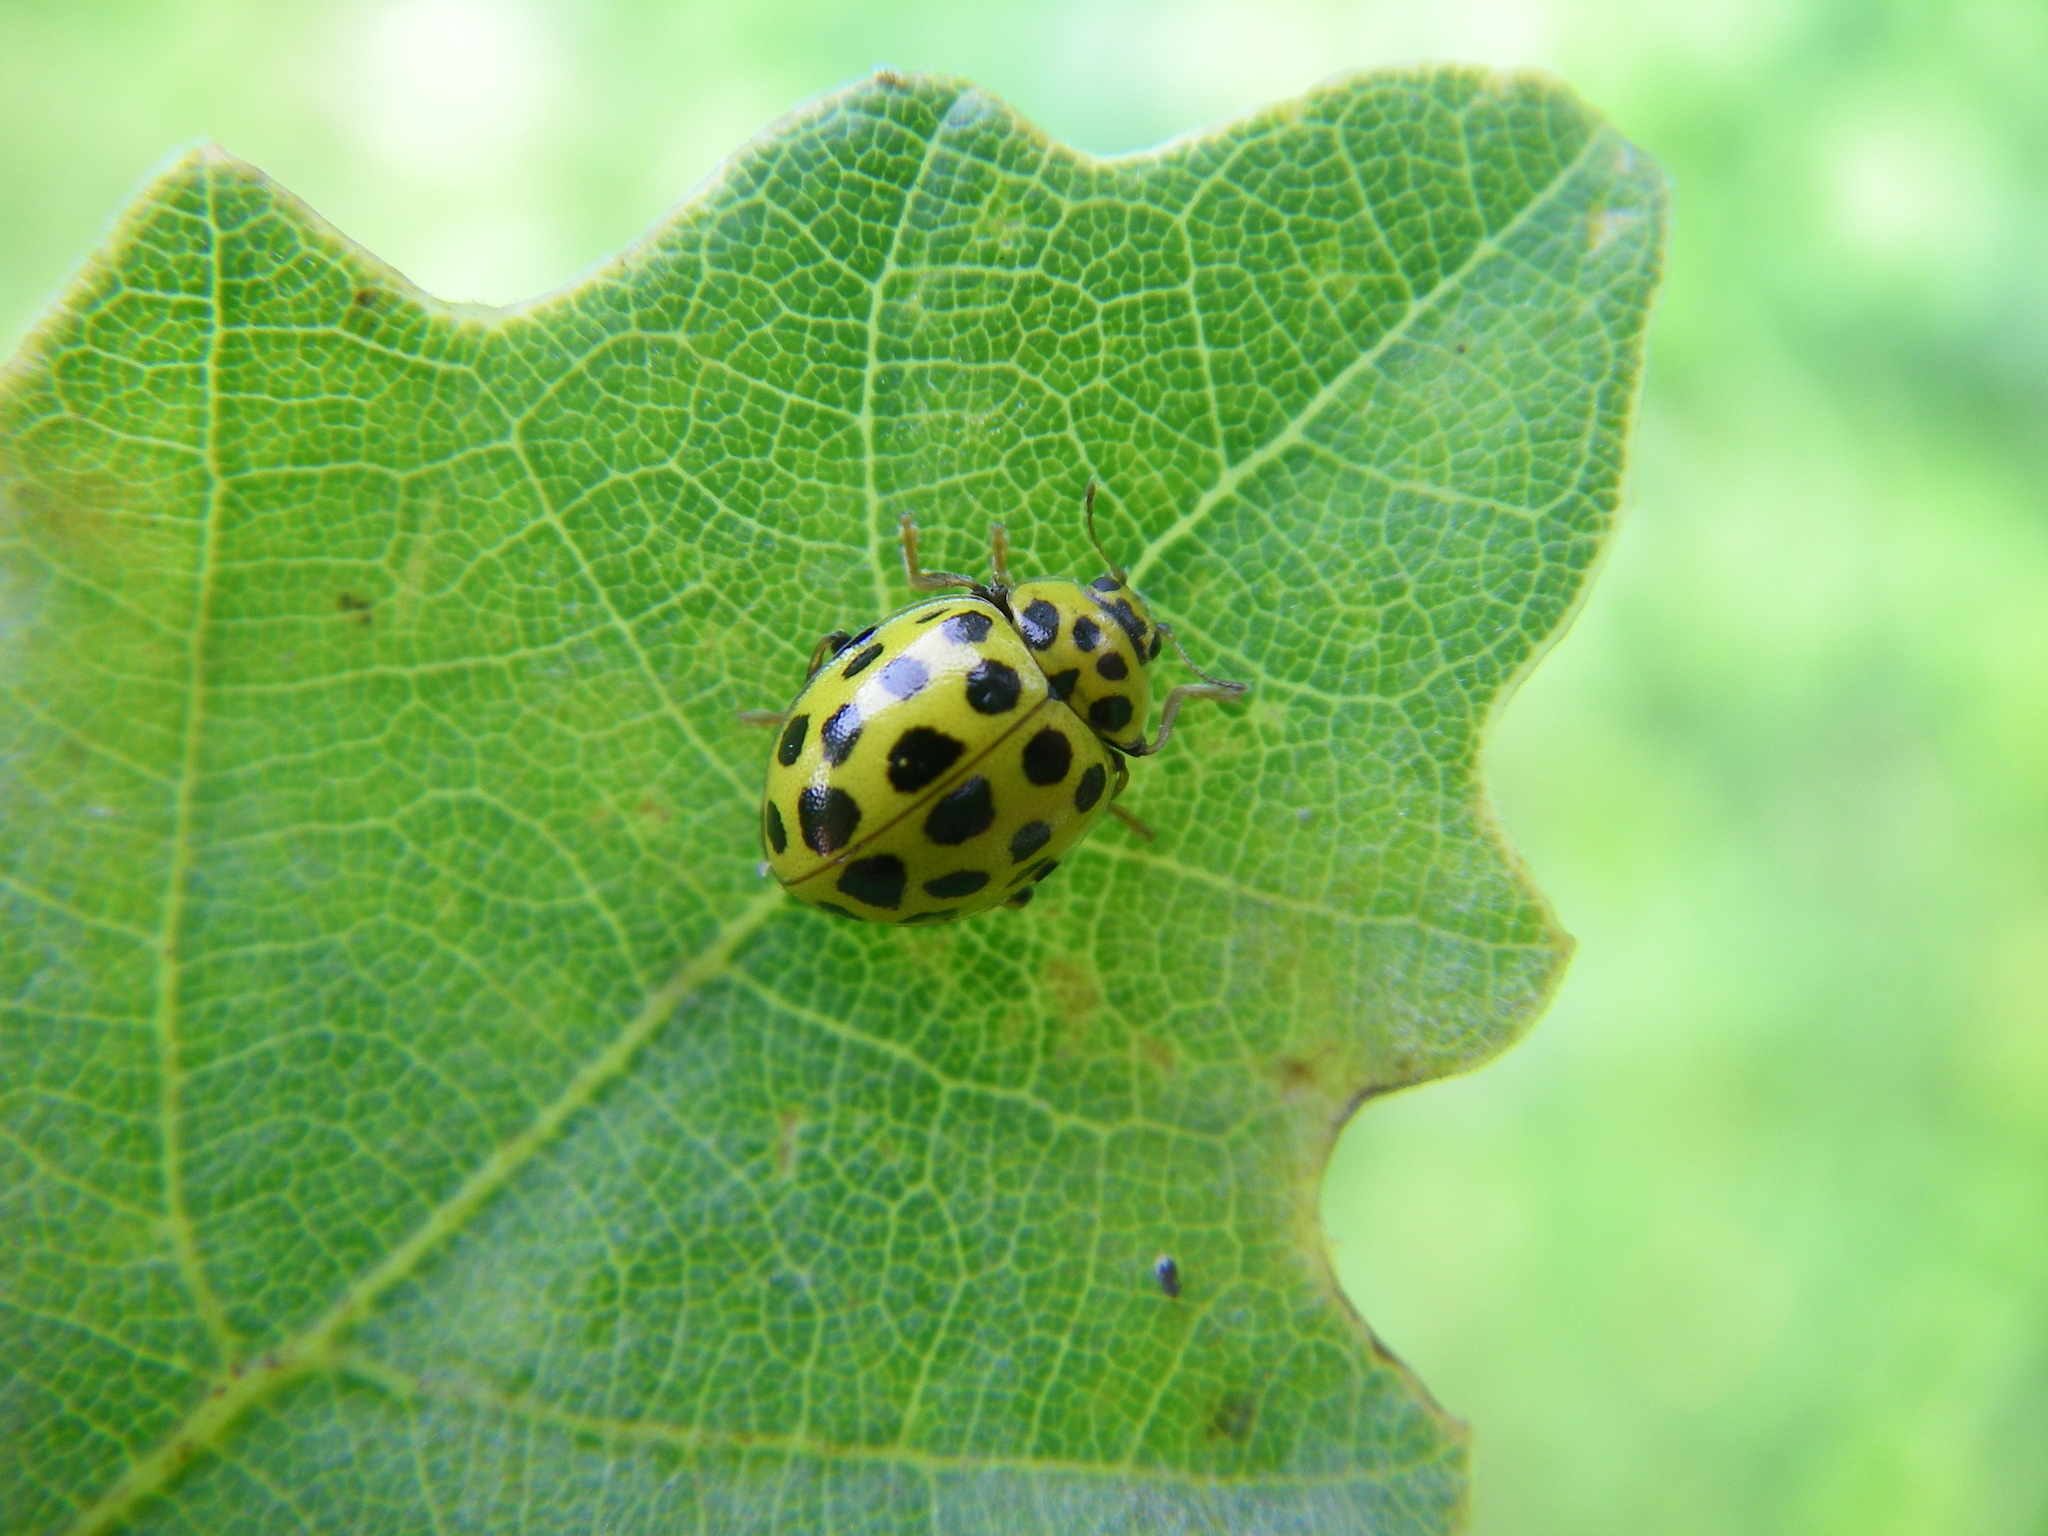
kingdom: Animalia
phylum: Arthropoda
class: Insecta
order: Coleoptera
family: Coccinellidae
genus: Psyllobora
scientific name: Psyllobora vigintiduopunctata
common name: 22-spot ladybird
